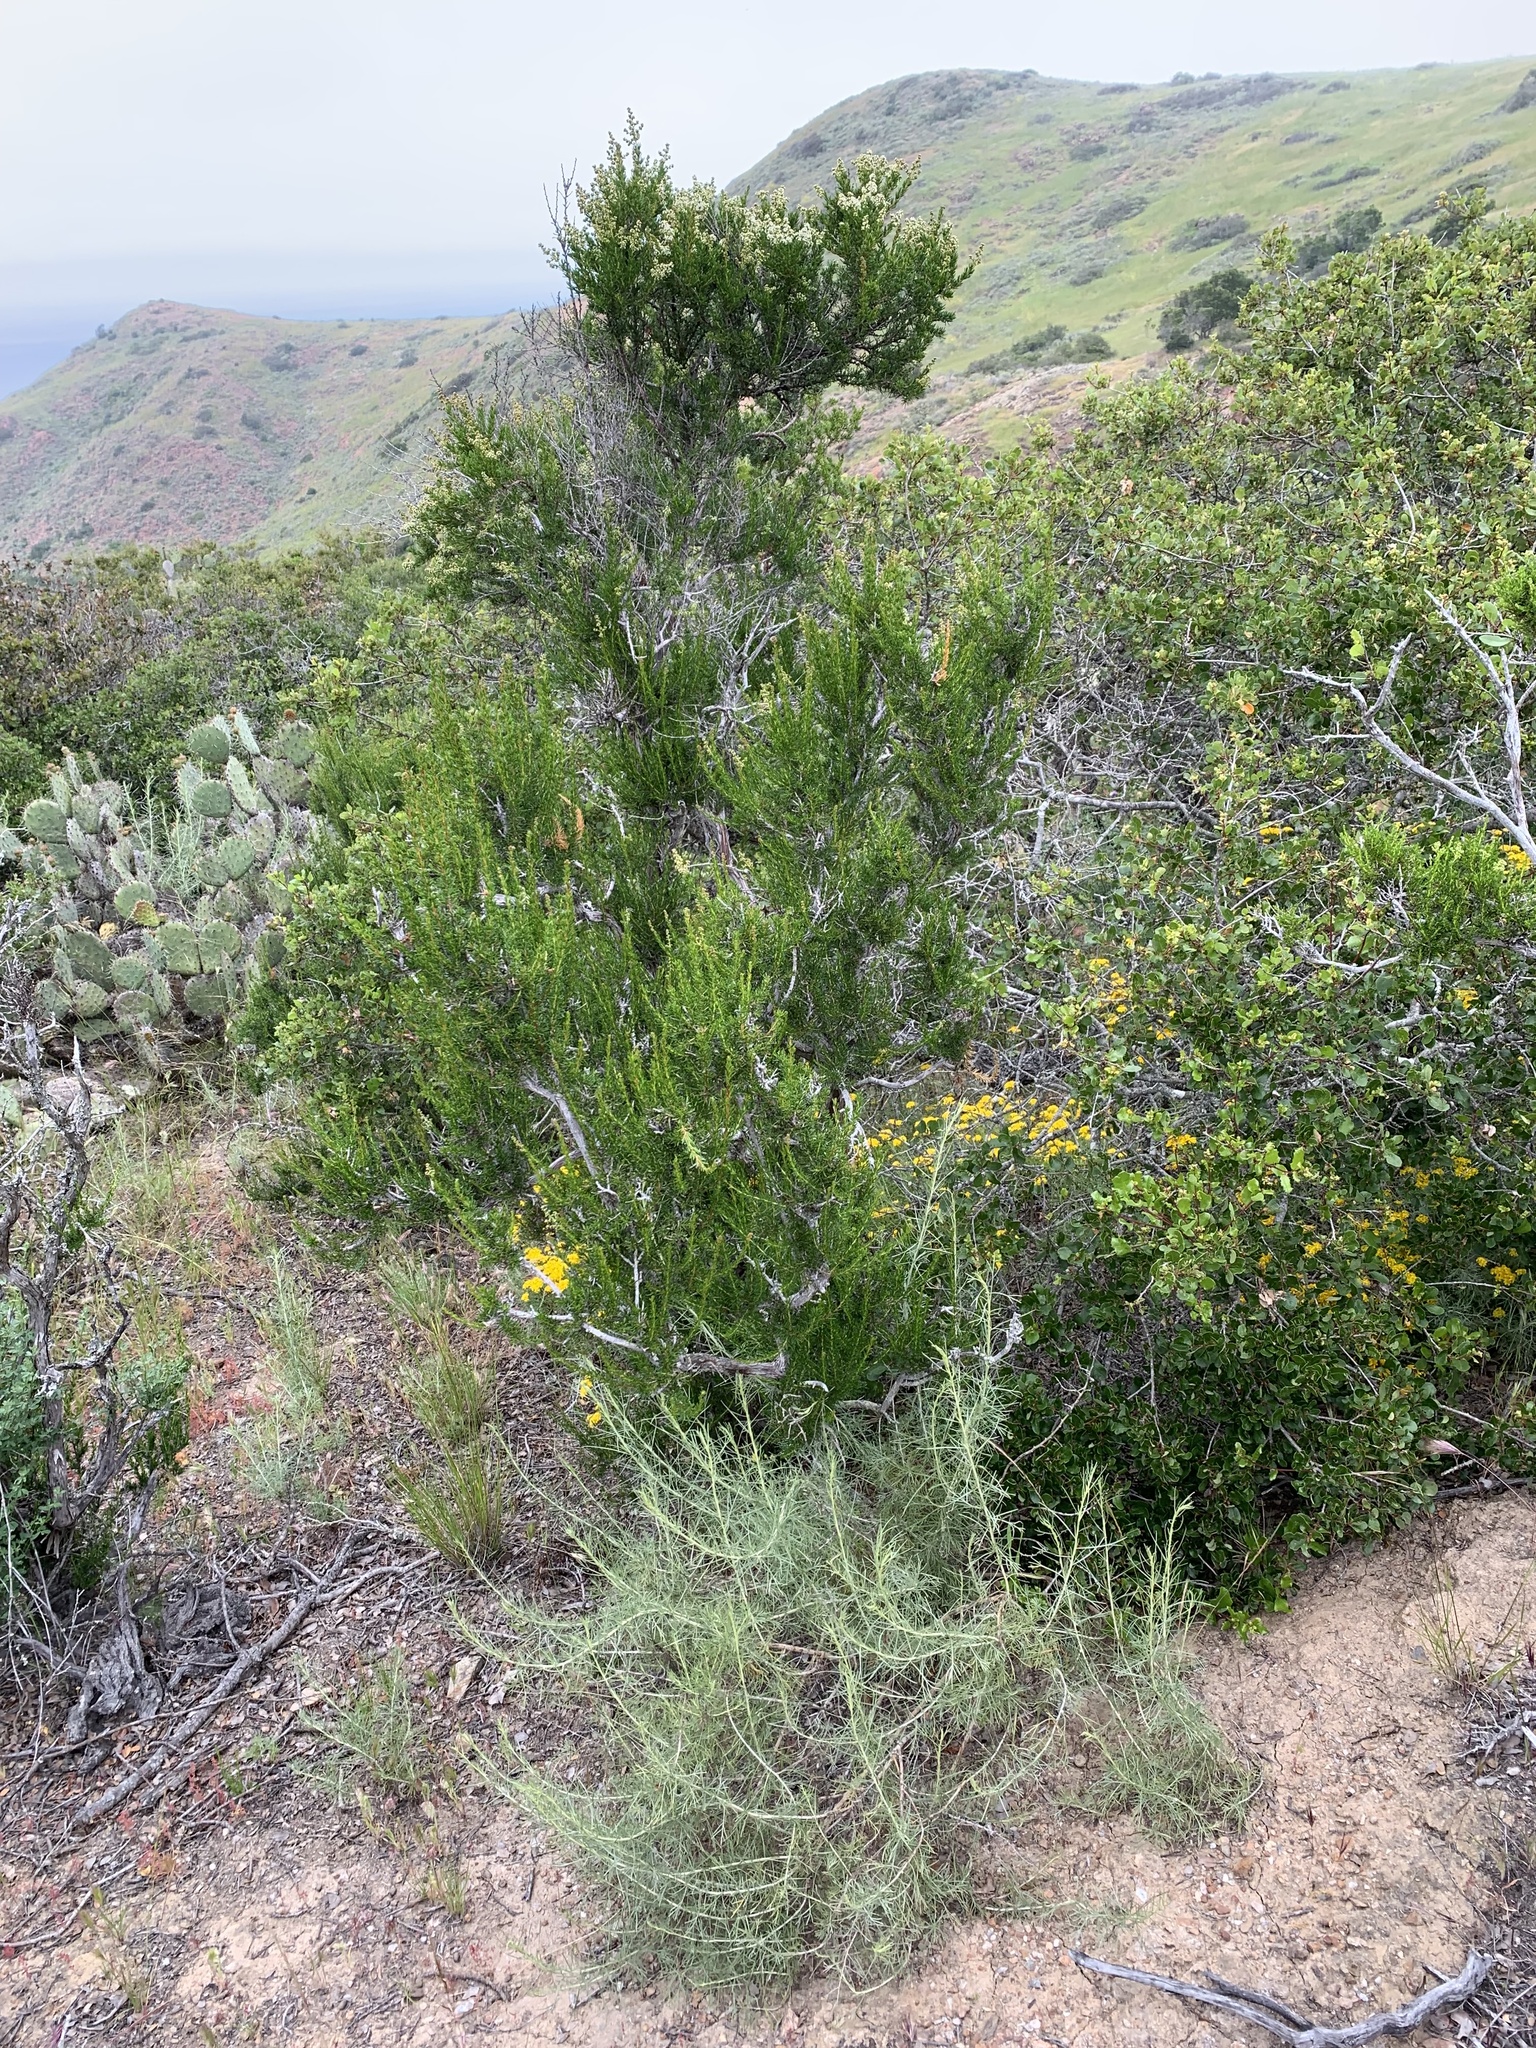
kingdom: Plantae
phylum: Tracheophyta
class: Magnoliopsida
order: Rosales
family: Rosaceae
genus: Adenostoma
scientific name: Adenostoma fasciculatum
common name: Chamise
